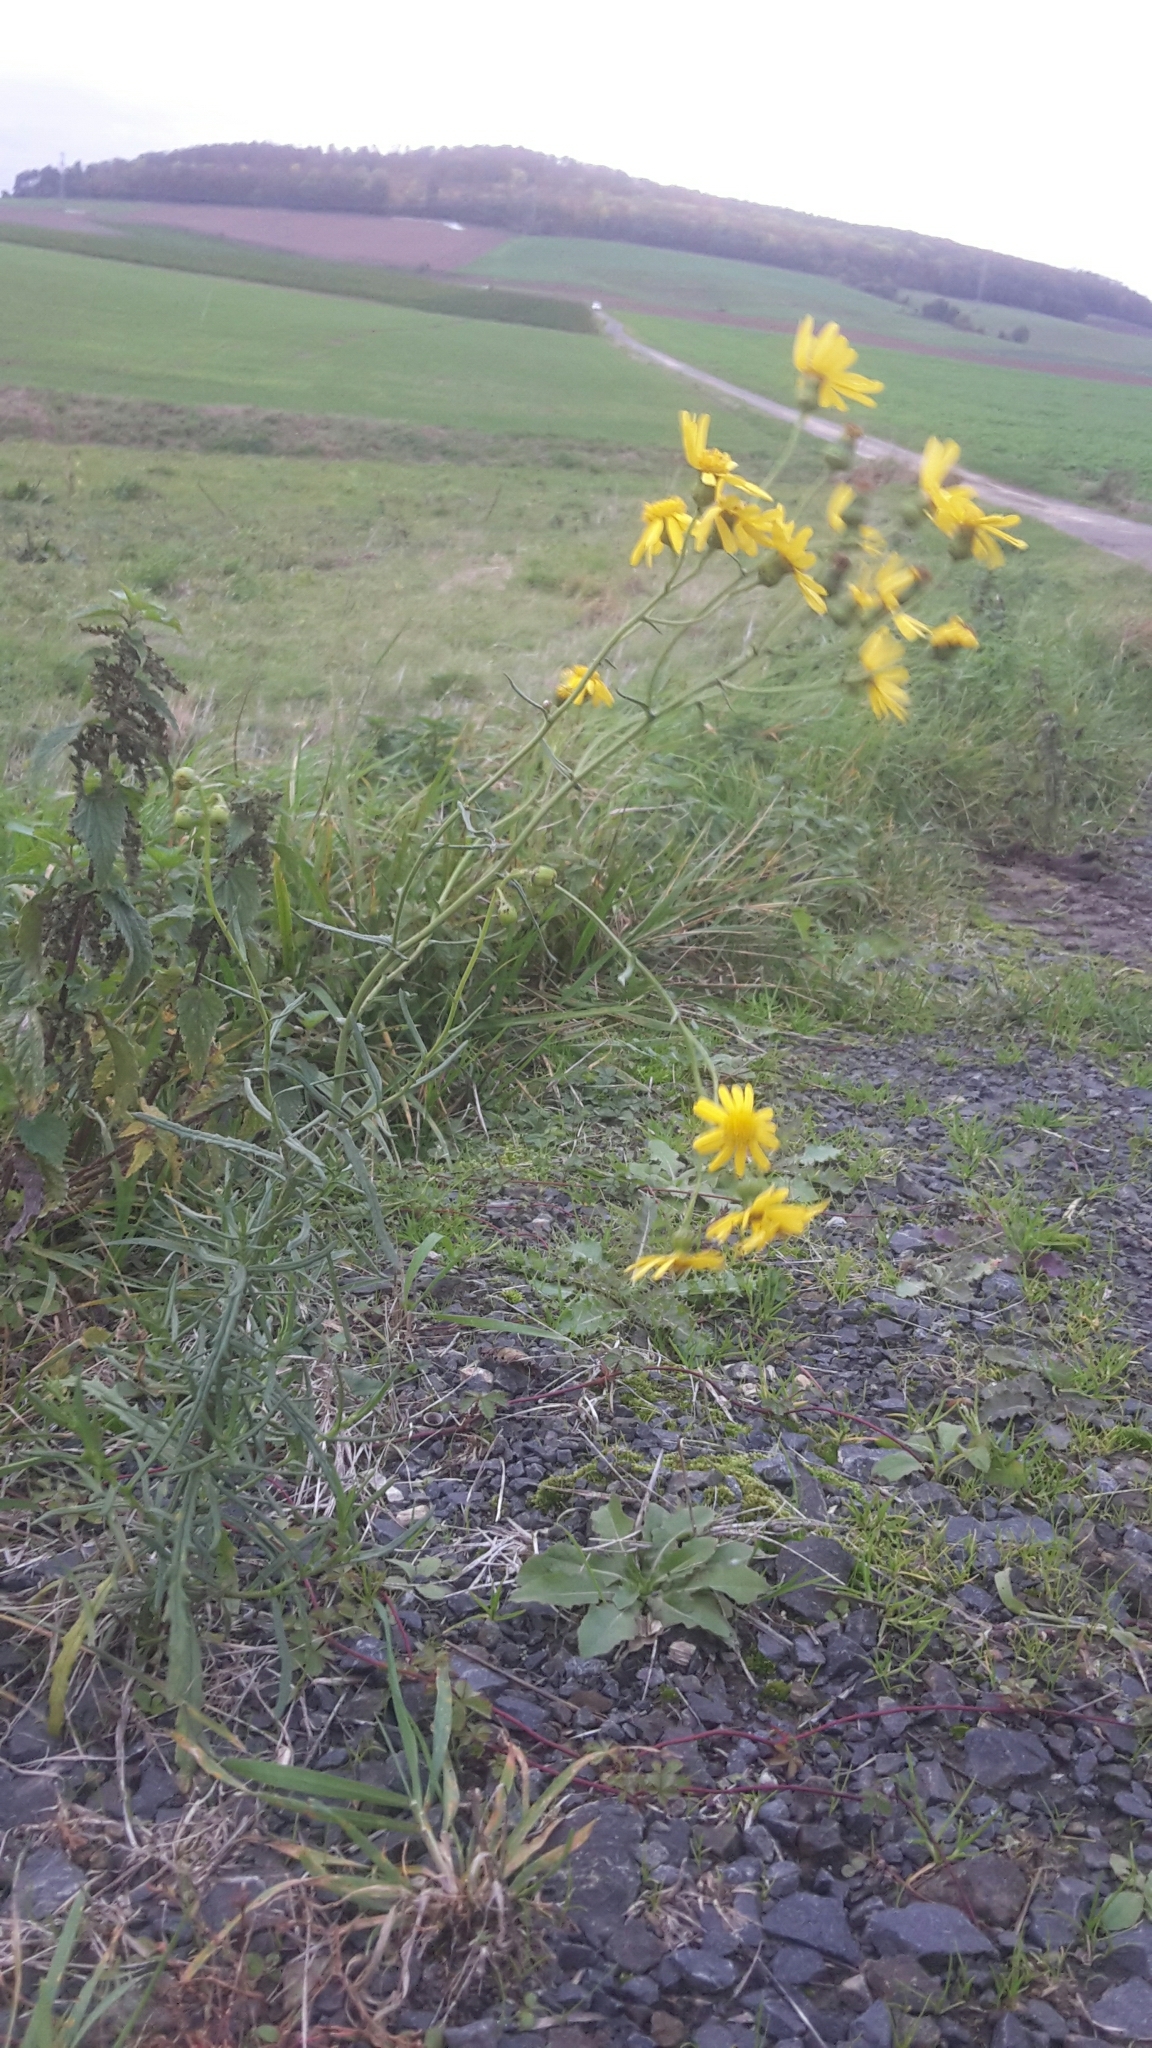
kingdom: Plantae
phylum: Tracheophyta
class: Magnoliopsida
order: Asterales
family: Asteraceae
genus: Senecio
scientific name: Senecio inaequidens
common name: Narrow-leaved ragwort
